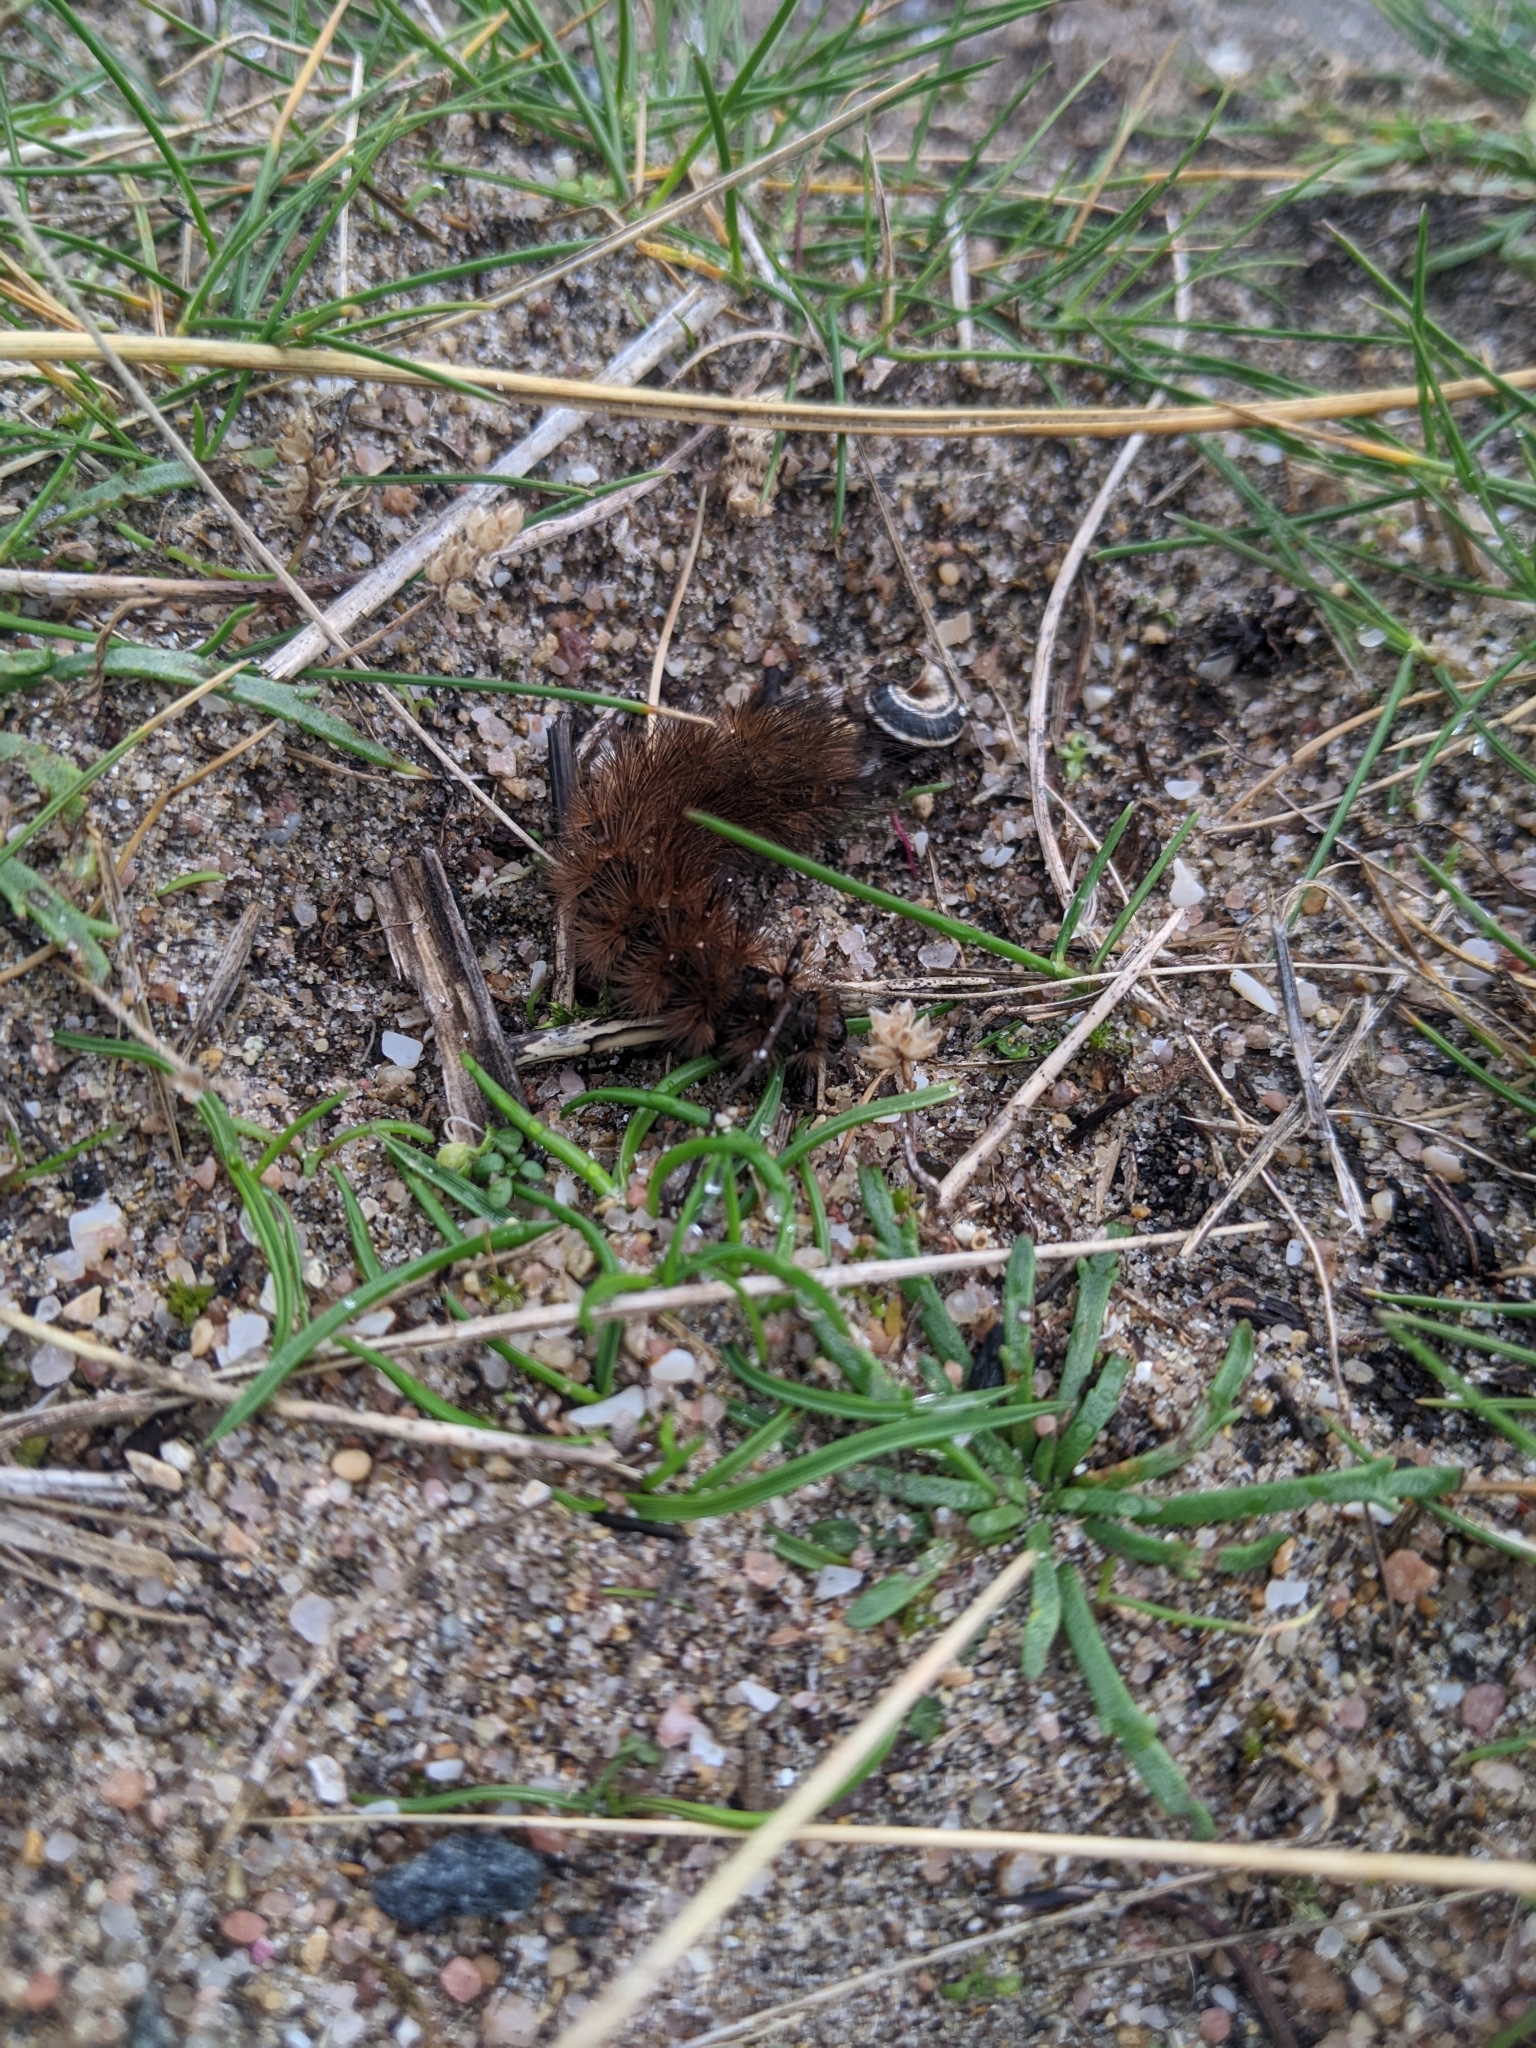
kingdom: Animalia
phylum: Arthropoda
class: Insecta
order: Lepidoptera
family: Erebidae
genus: Phragmatobia
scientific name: Phragmatobia fuliginosa
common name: Ruby tiger
